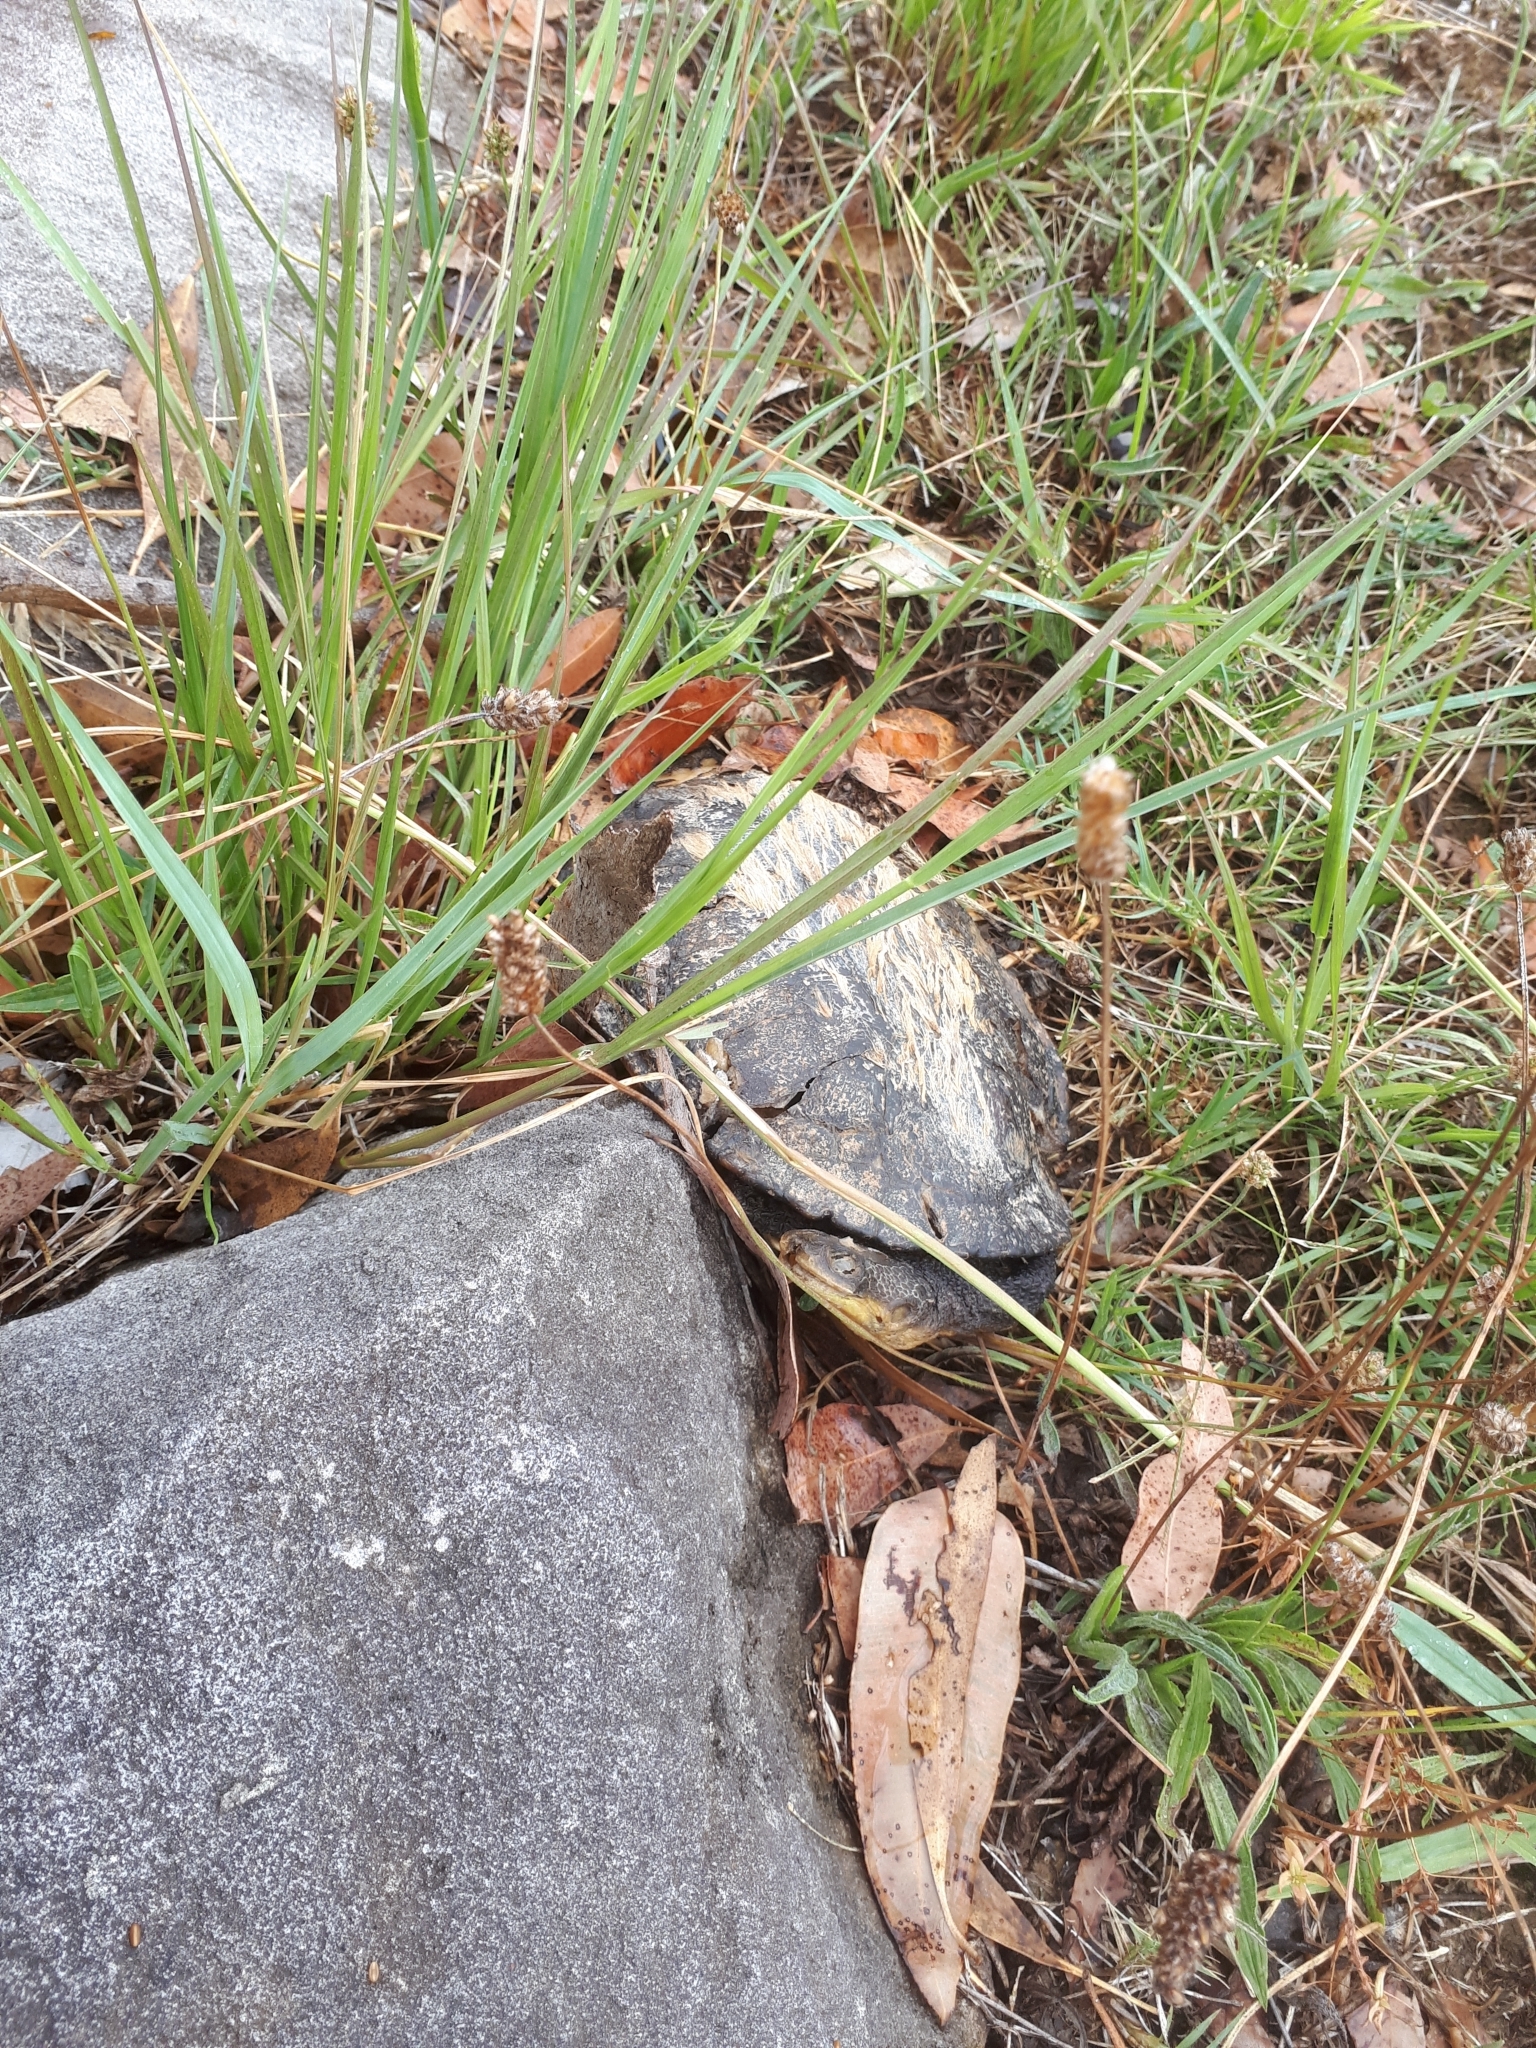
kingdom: Animalia
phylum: Chordata
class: Testudines
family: Chelidae
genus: Chelodina
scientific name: Chelodina longicollis
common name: Eastern snake-necked turtle
